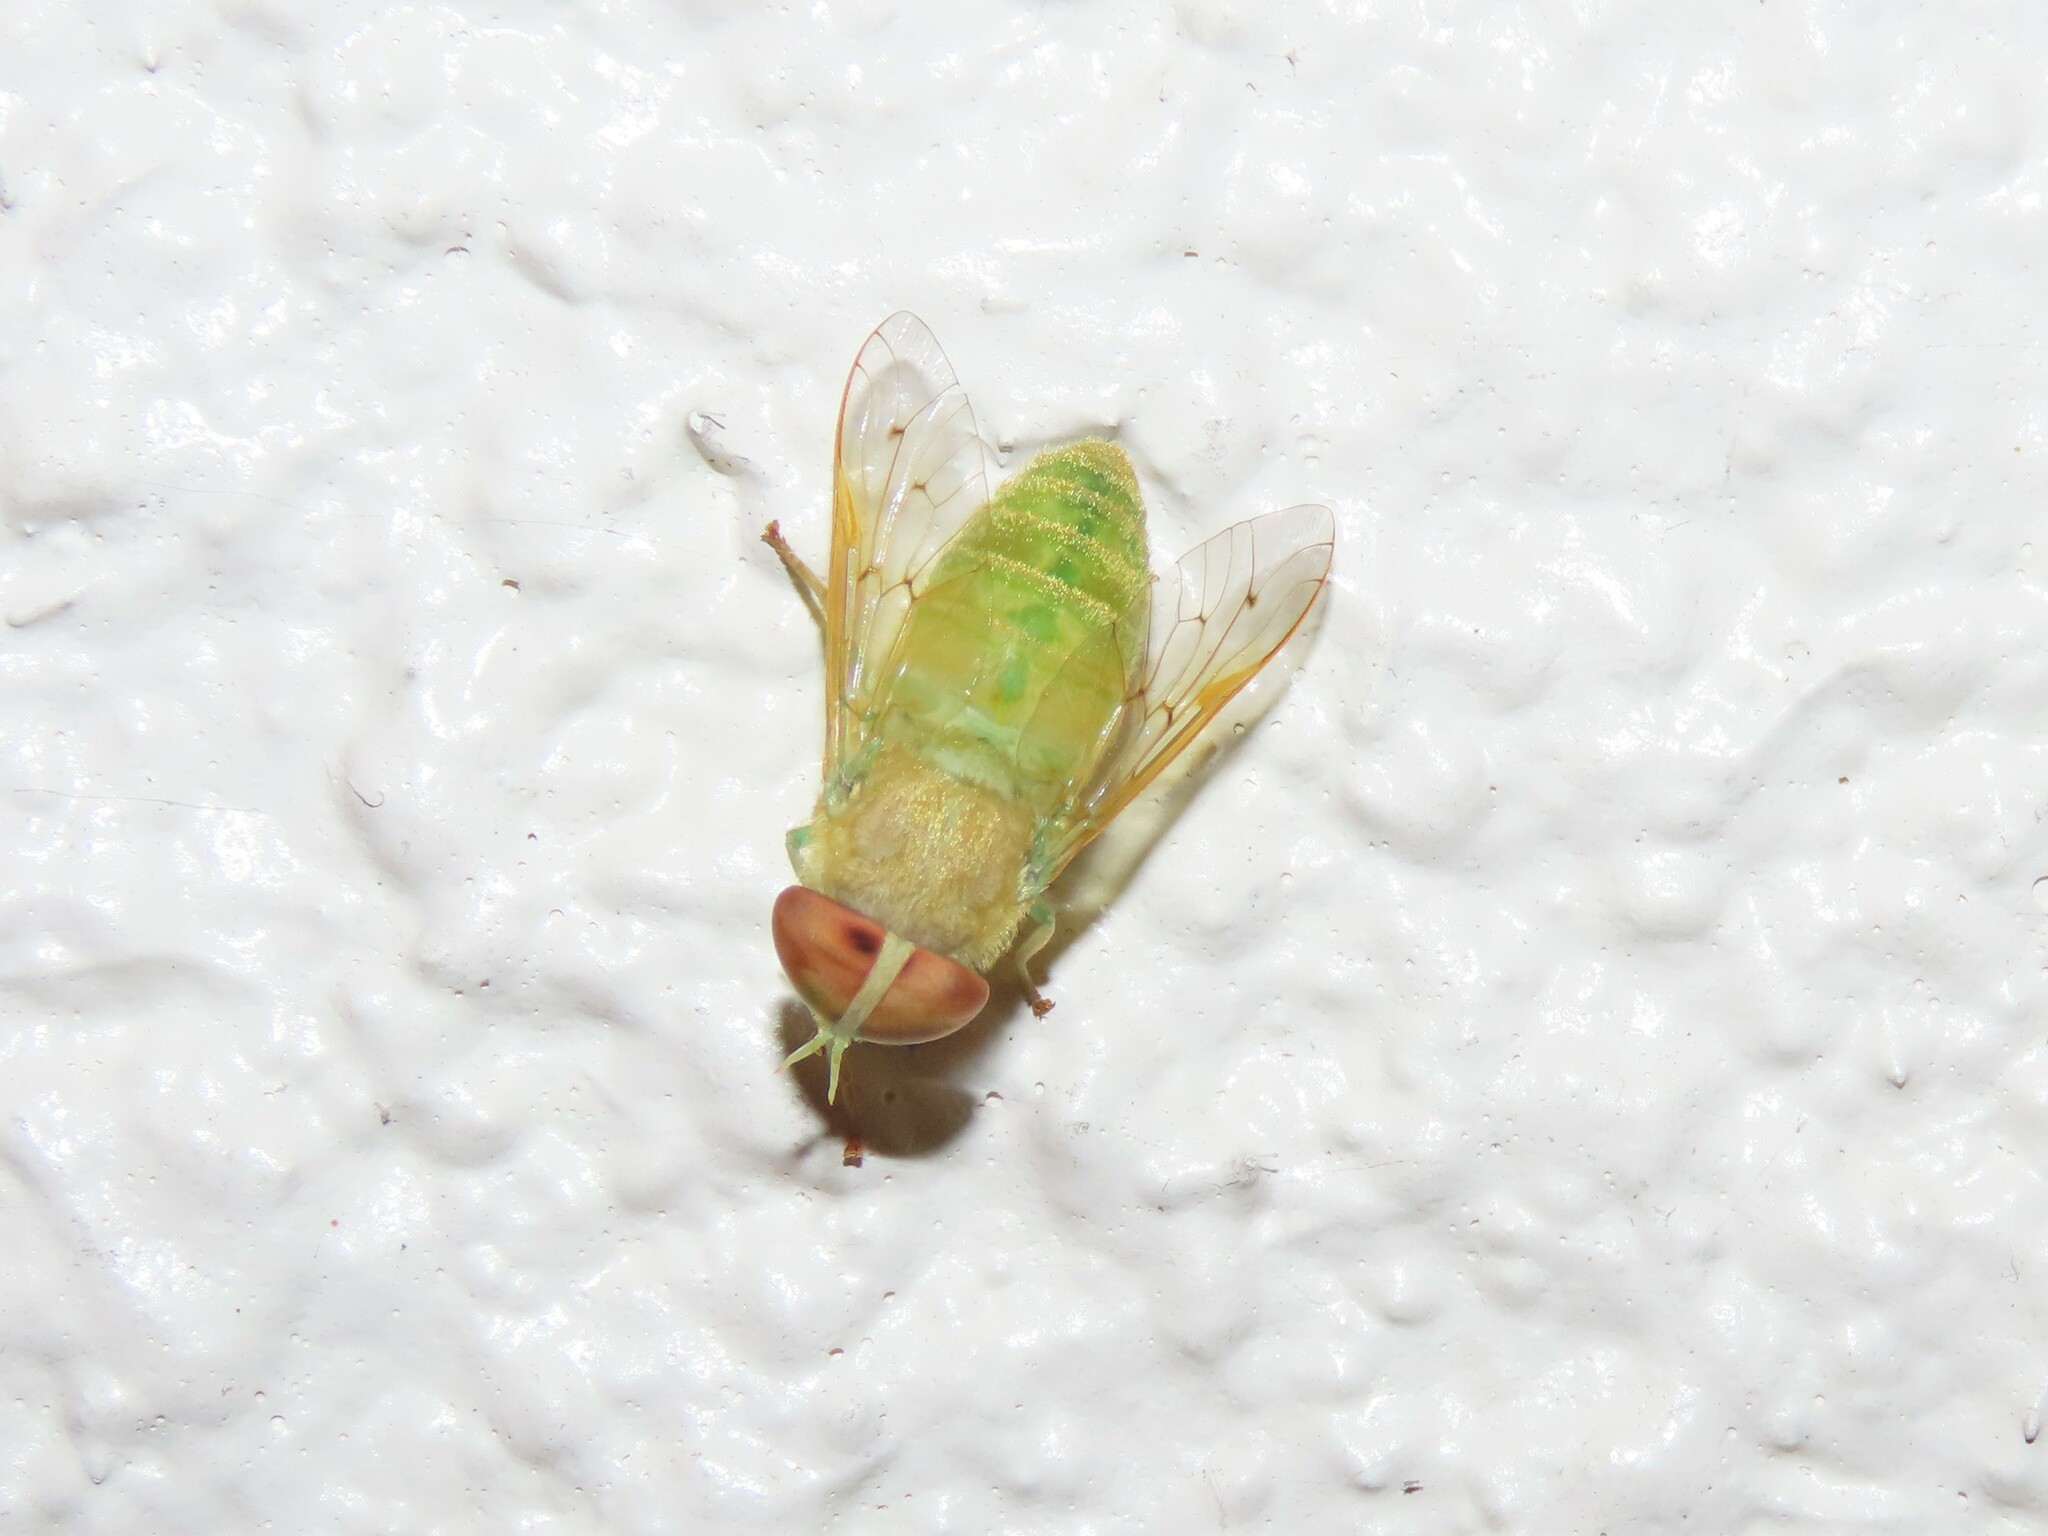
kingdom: Animalia
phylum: Arthropoda
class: Insecta
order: Diptera
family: Tabanidae
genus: Chlorotabanus
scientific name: Chlorotabanus crepuscularis
